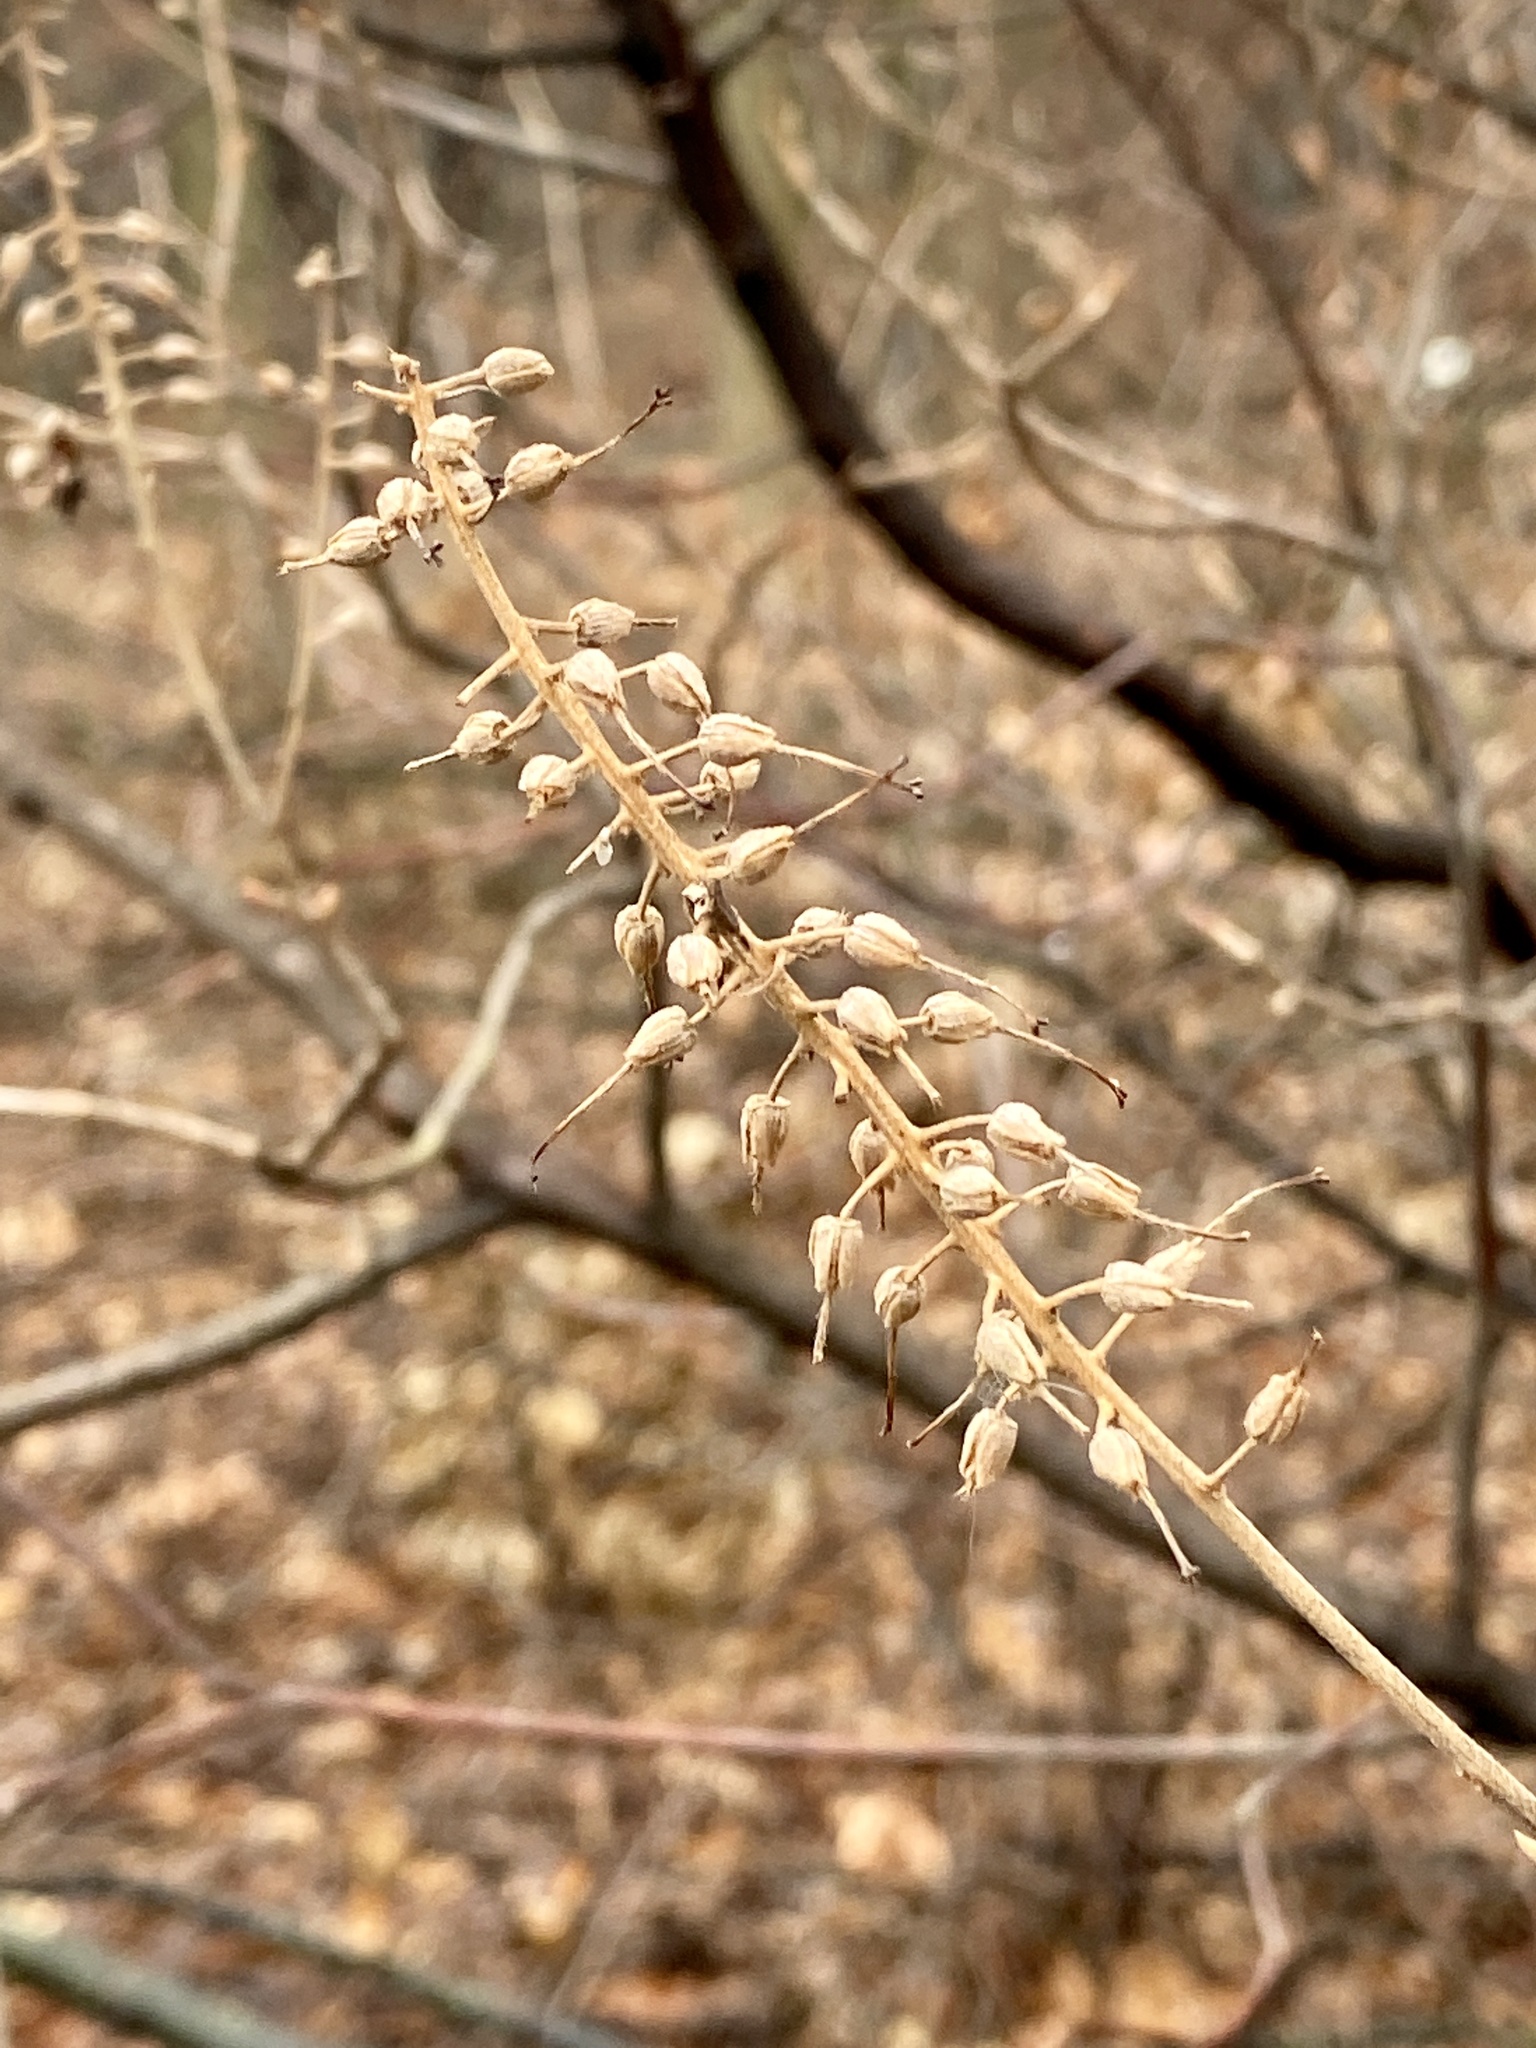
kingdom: Plantae
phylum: Tracheophyta
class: Magnoliopsida
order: Ericales
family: Clethraceae
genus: Clethra
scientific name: Clethra alnifolia
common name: Sweet pepperbush
